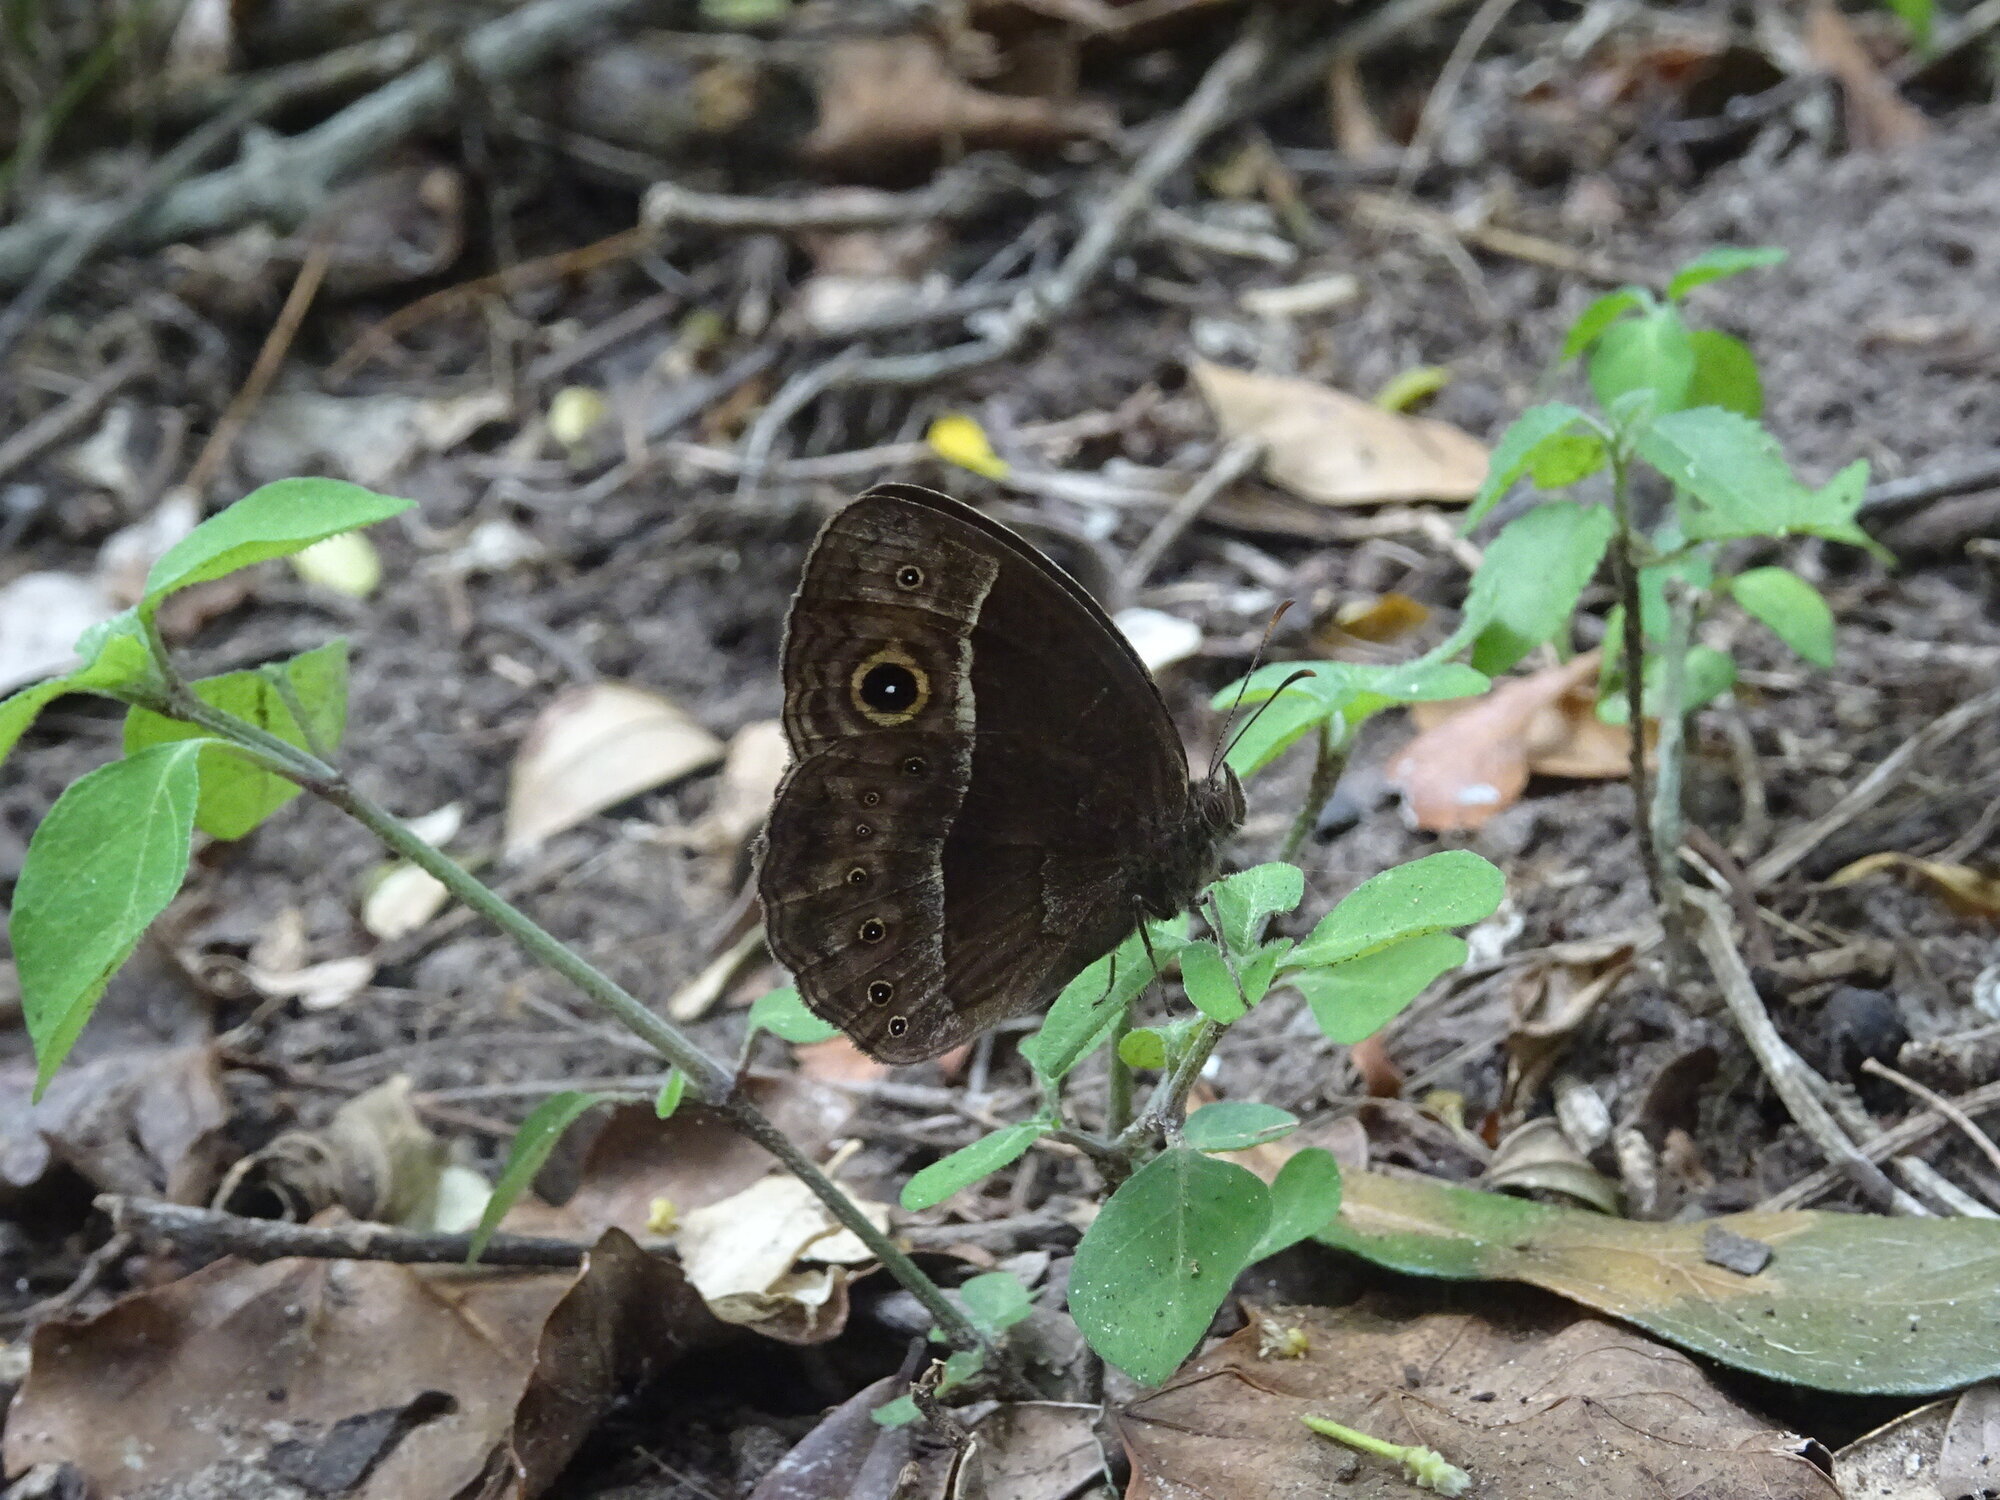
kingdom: Animalia
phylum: Arthropoda
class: Insecta
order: Lepidoptera
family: Nymphalidae
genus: Mycalesis
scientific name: Mycalesis rhacotis
